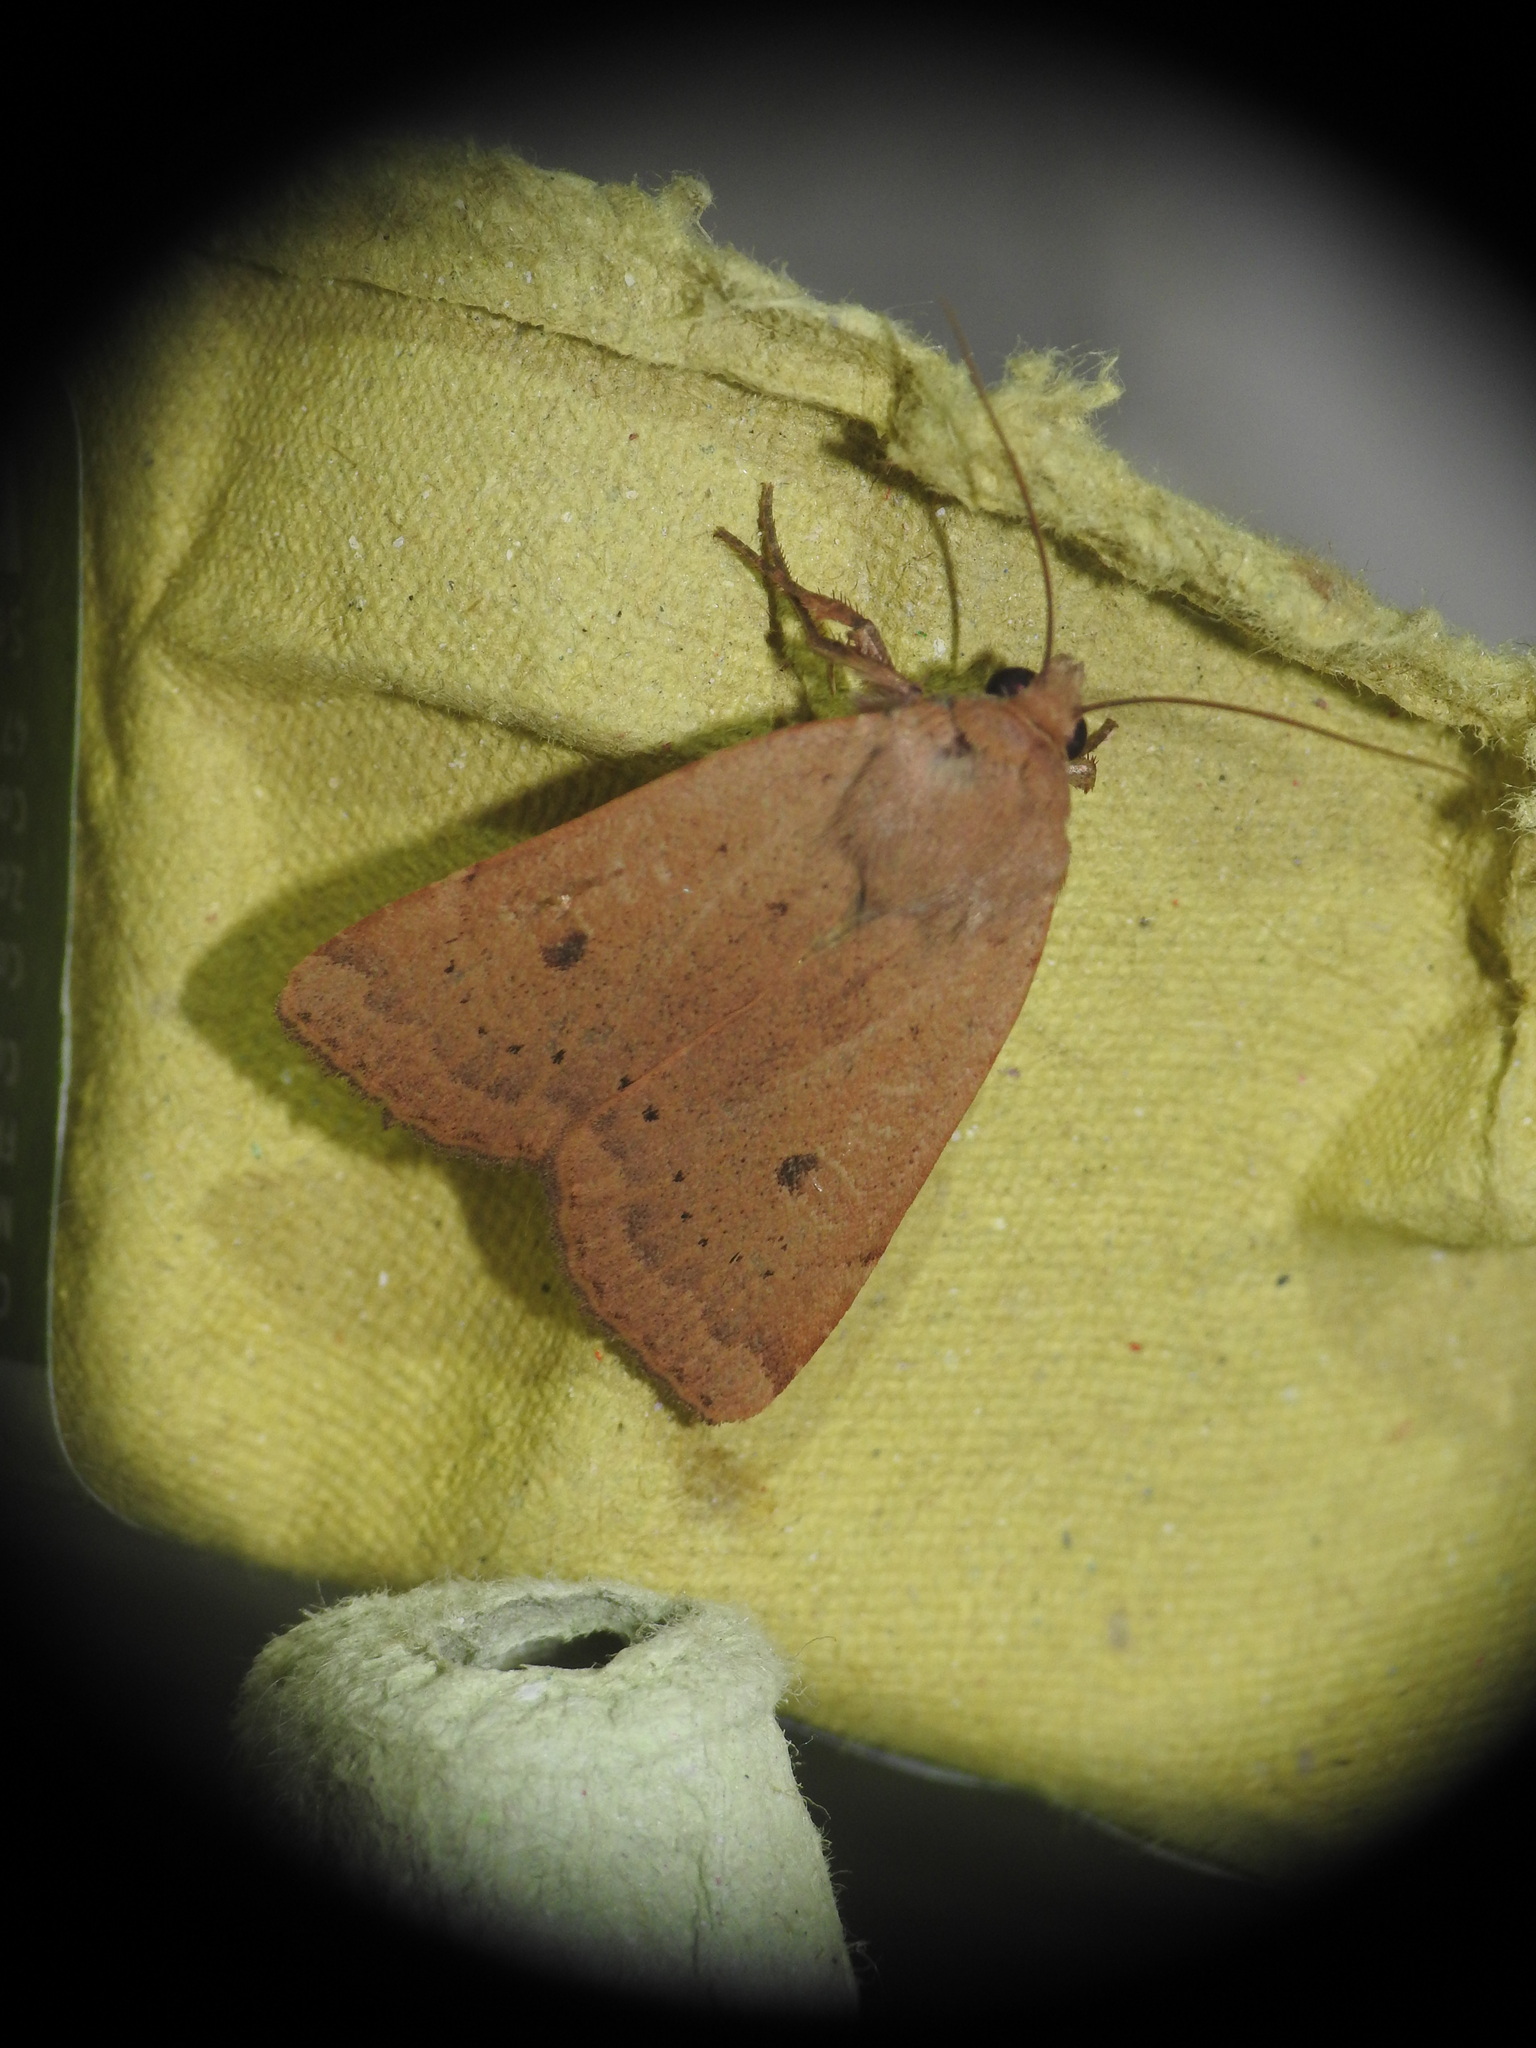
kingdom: Animalia
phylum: Arthropoda
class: Insecta
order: Lepidoptera
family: Noctuidae
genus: Noctua
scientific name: Noctua comes
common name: Lesser yellow underwing
